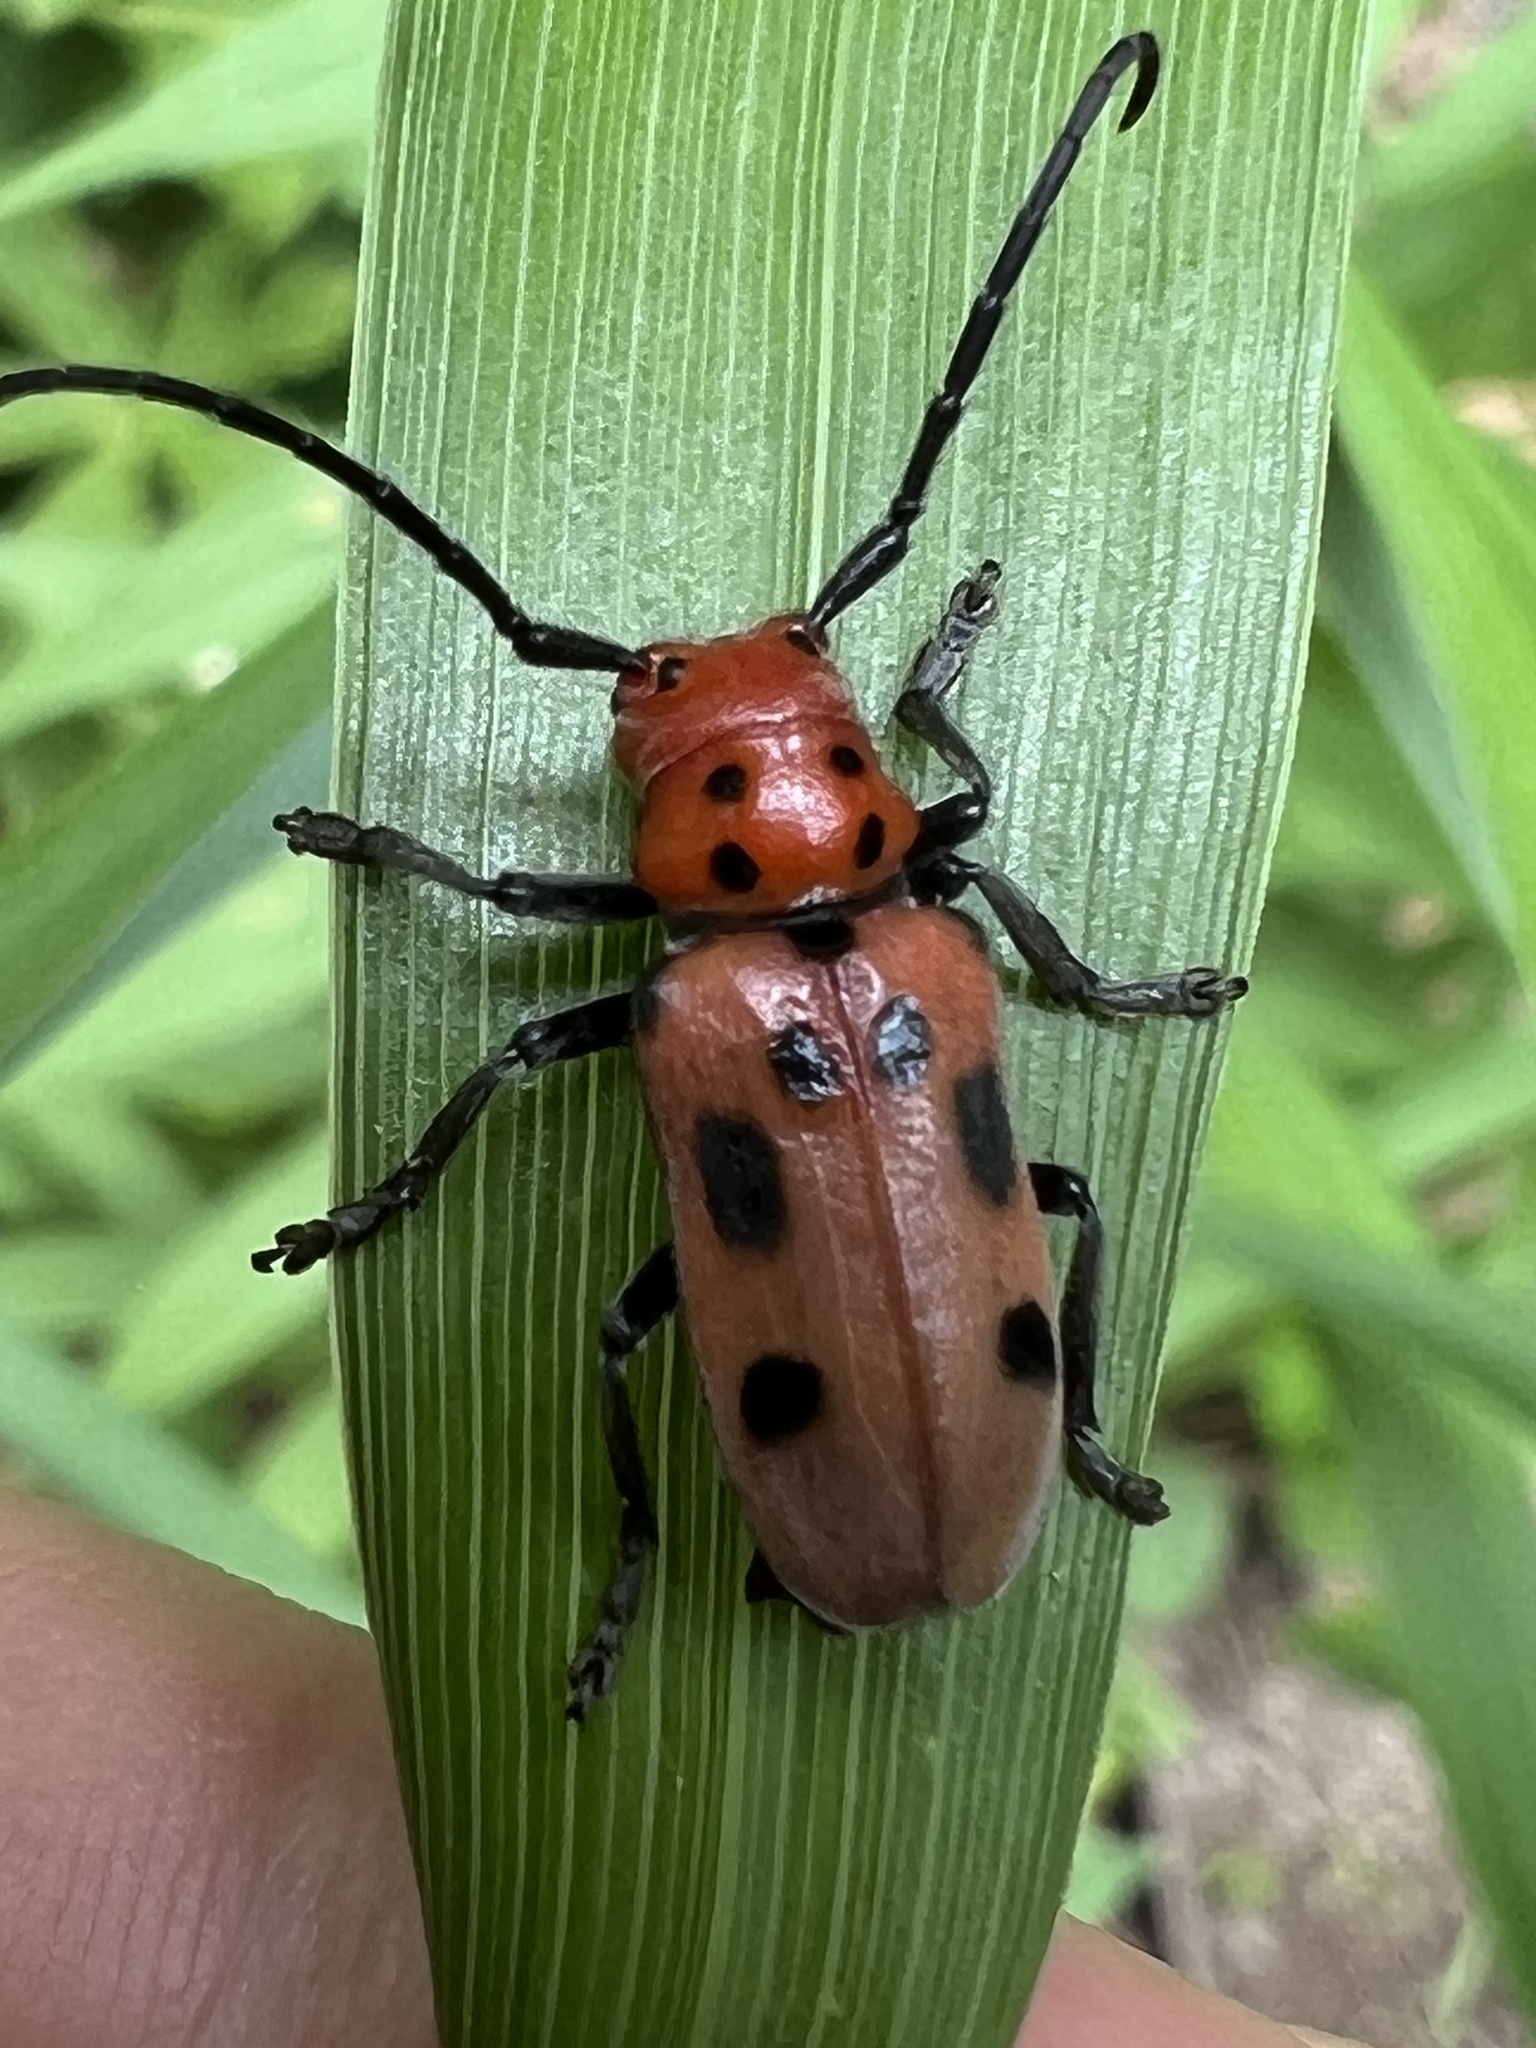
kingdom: Animalia
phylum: Arthropoda
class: Insecta
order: Coleoptera
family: Cerambycidae
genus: Tetraopes
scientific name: Tetraopes tetrophthalmus
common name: Red milkweed beetle
